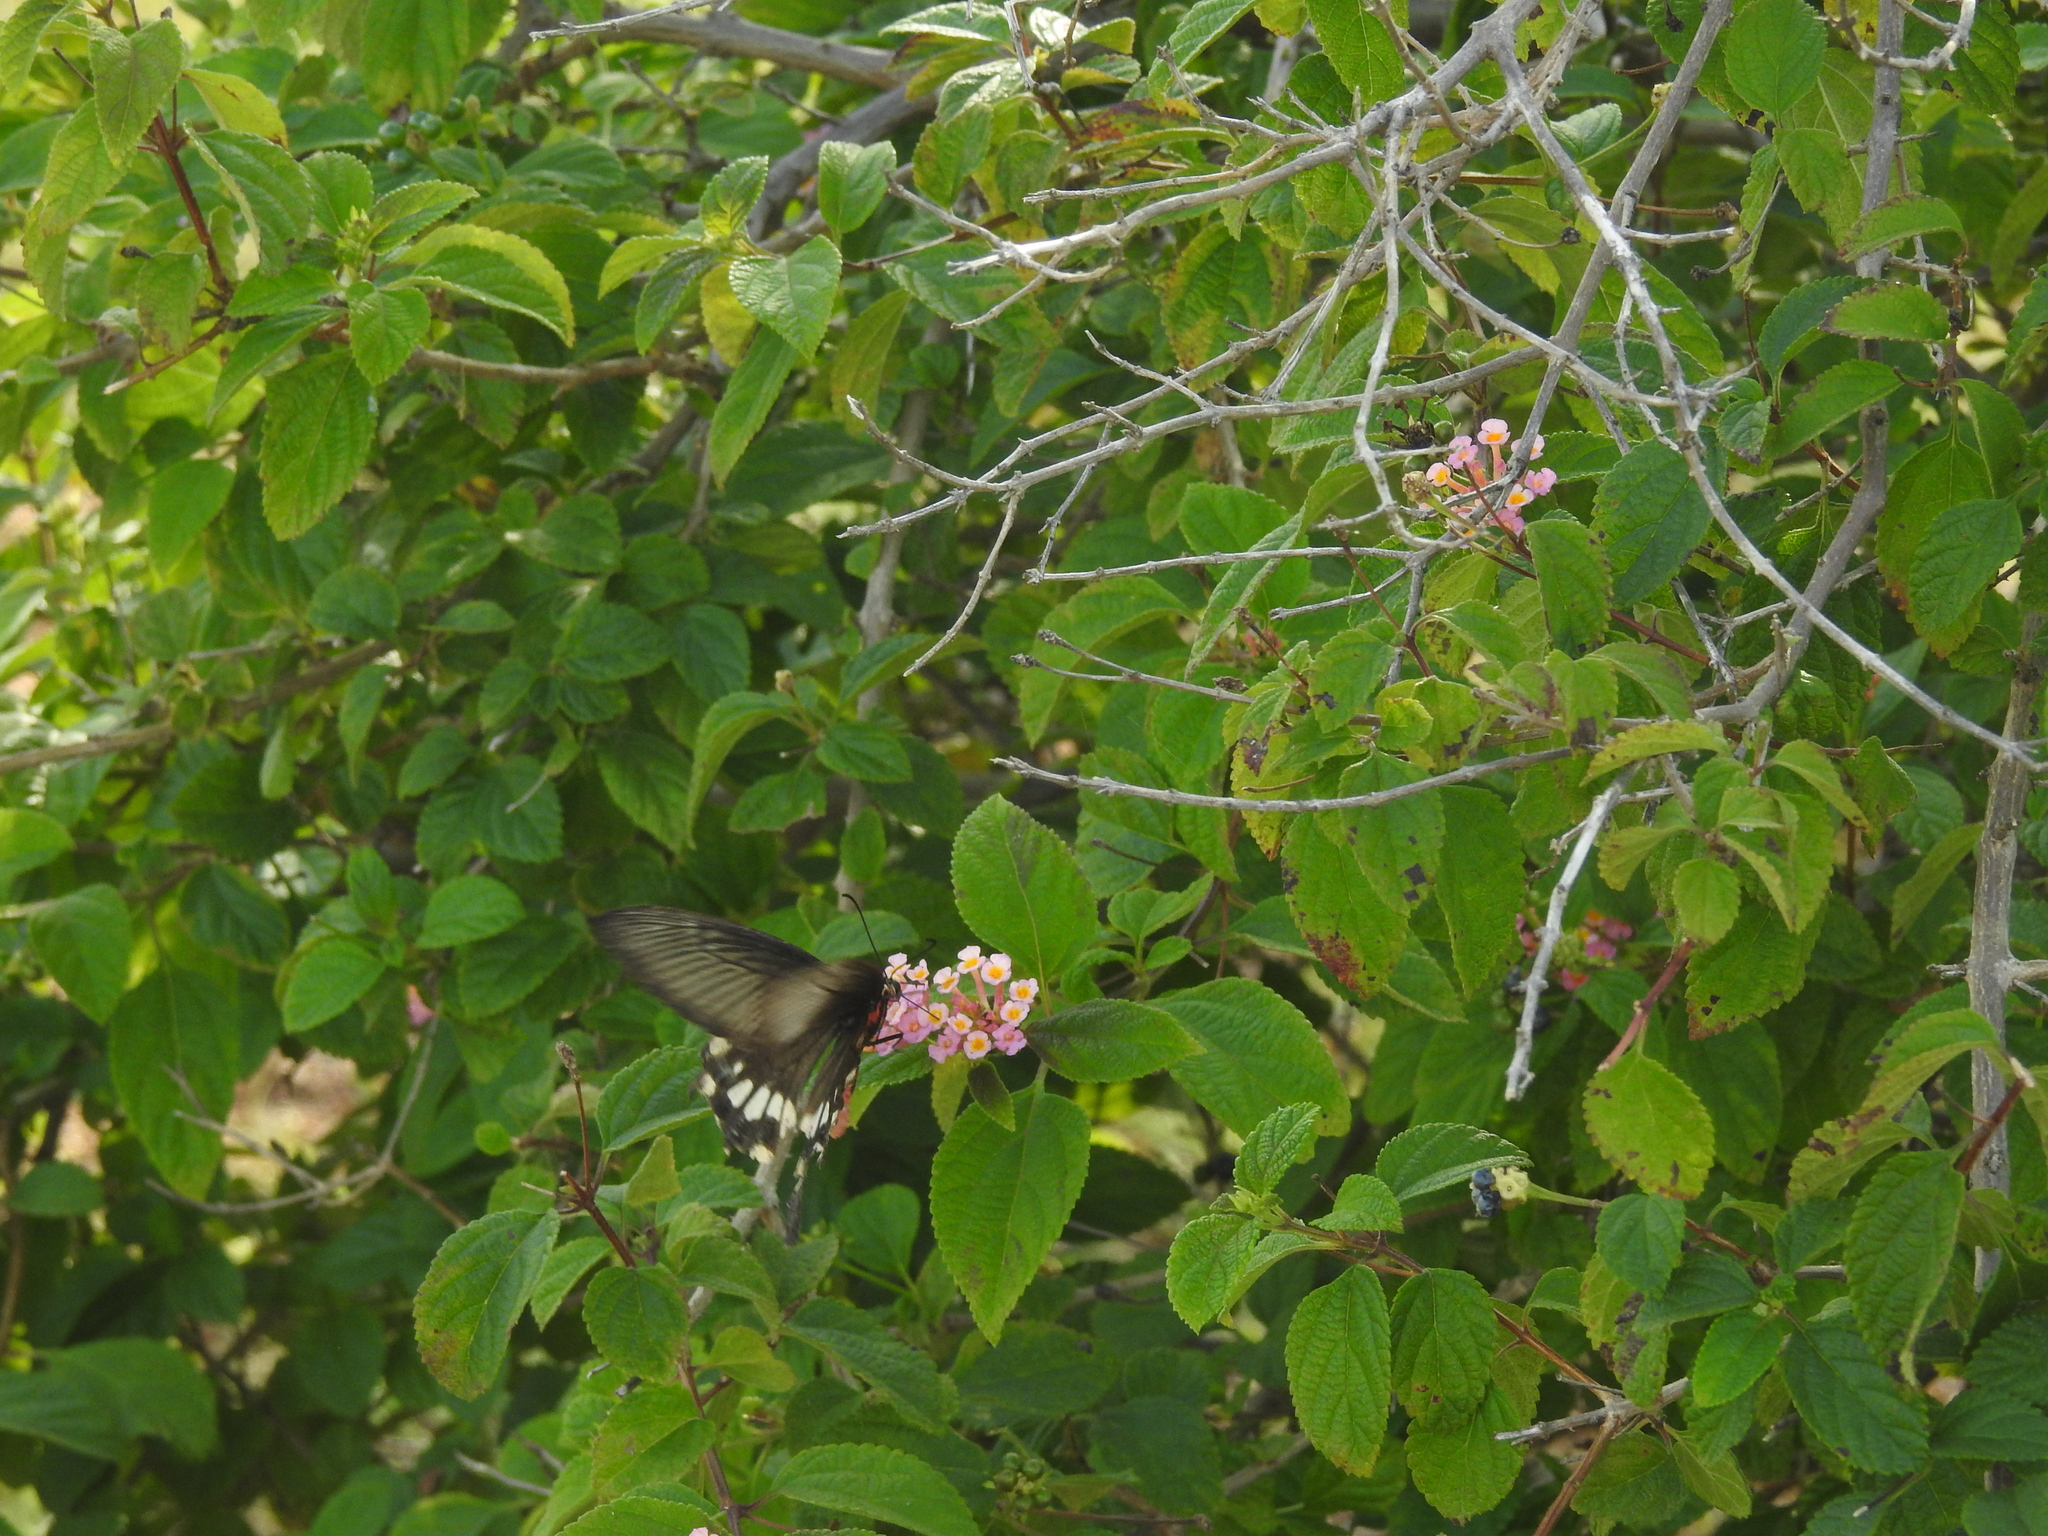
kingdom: Animalia
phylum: Arthropoda
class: Insecta
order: Lepidoptera
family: Papilionidae
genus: Pachliopta
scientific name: Pachliopta aristolochiae
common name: Common rose
